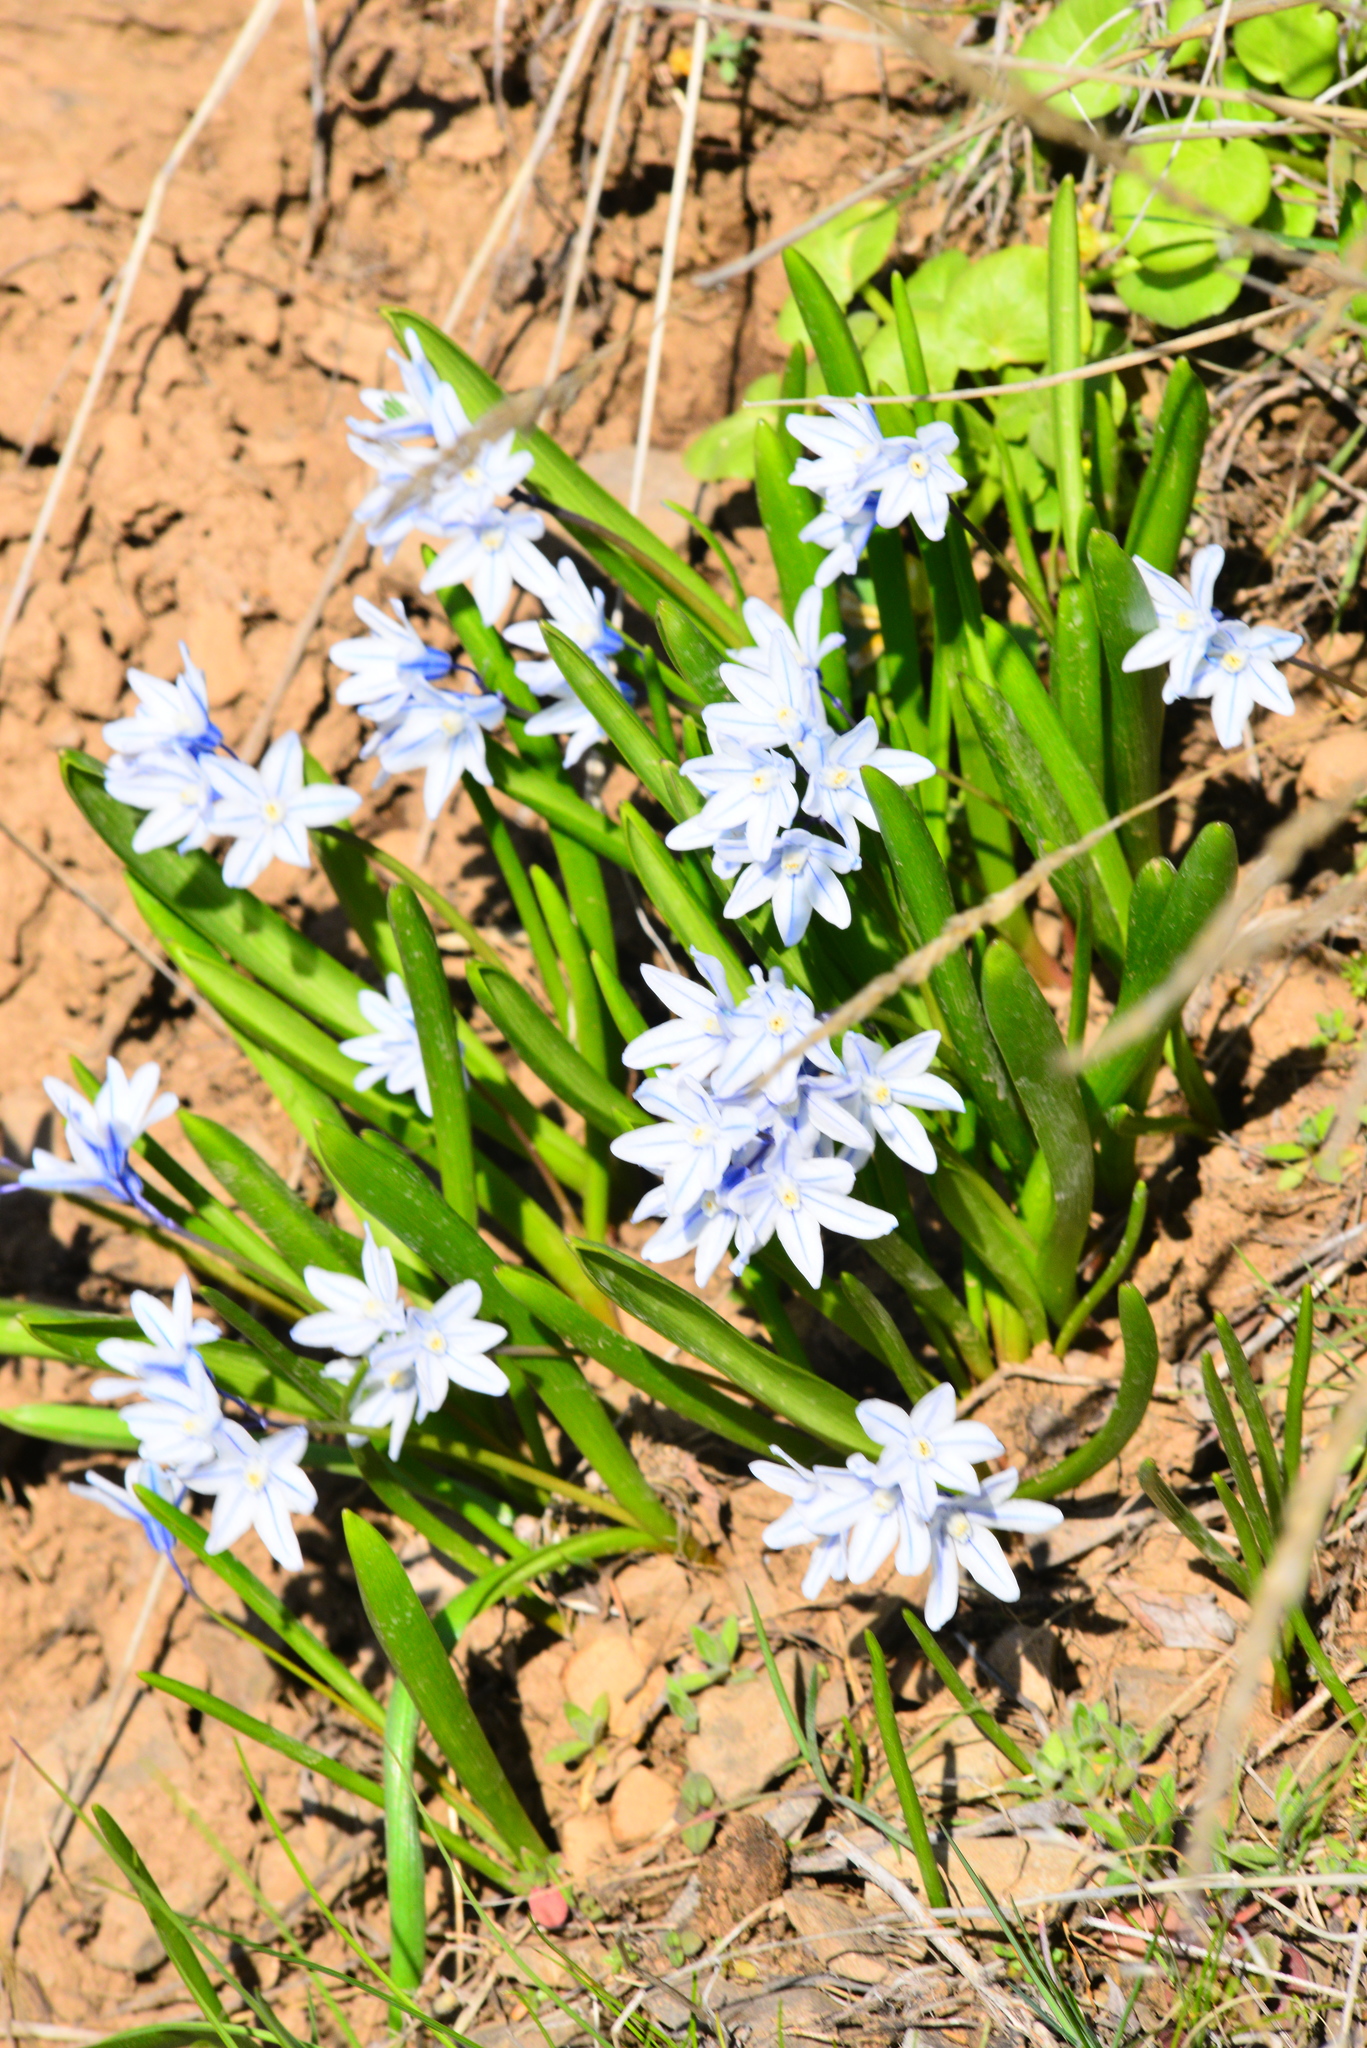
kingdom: Plantae
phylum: Tracheophyta
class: Liliopsida
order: Asparagales
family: Asparagaceae
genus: Puschkinia
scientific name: Puschkinia scilloides
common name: Striped squill
